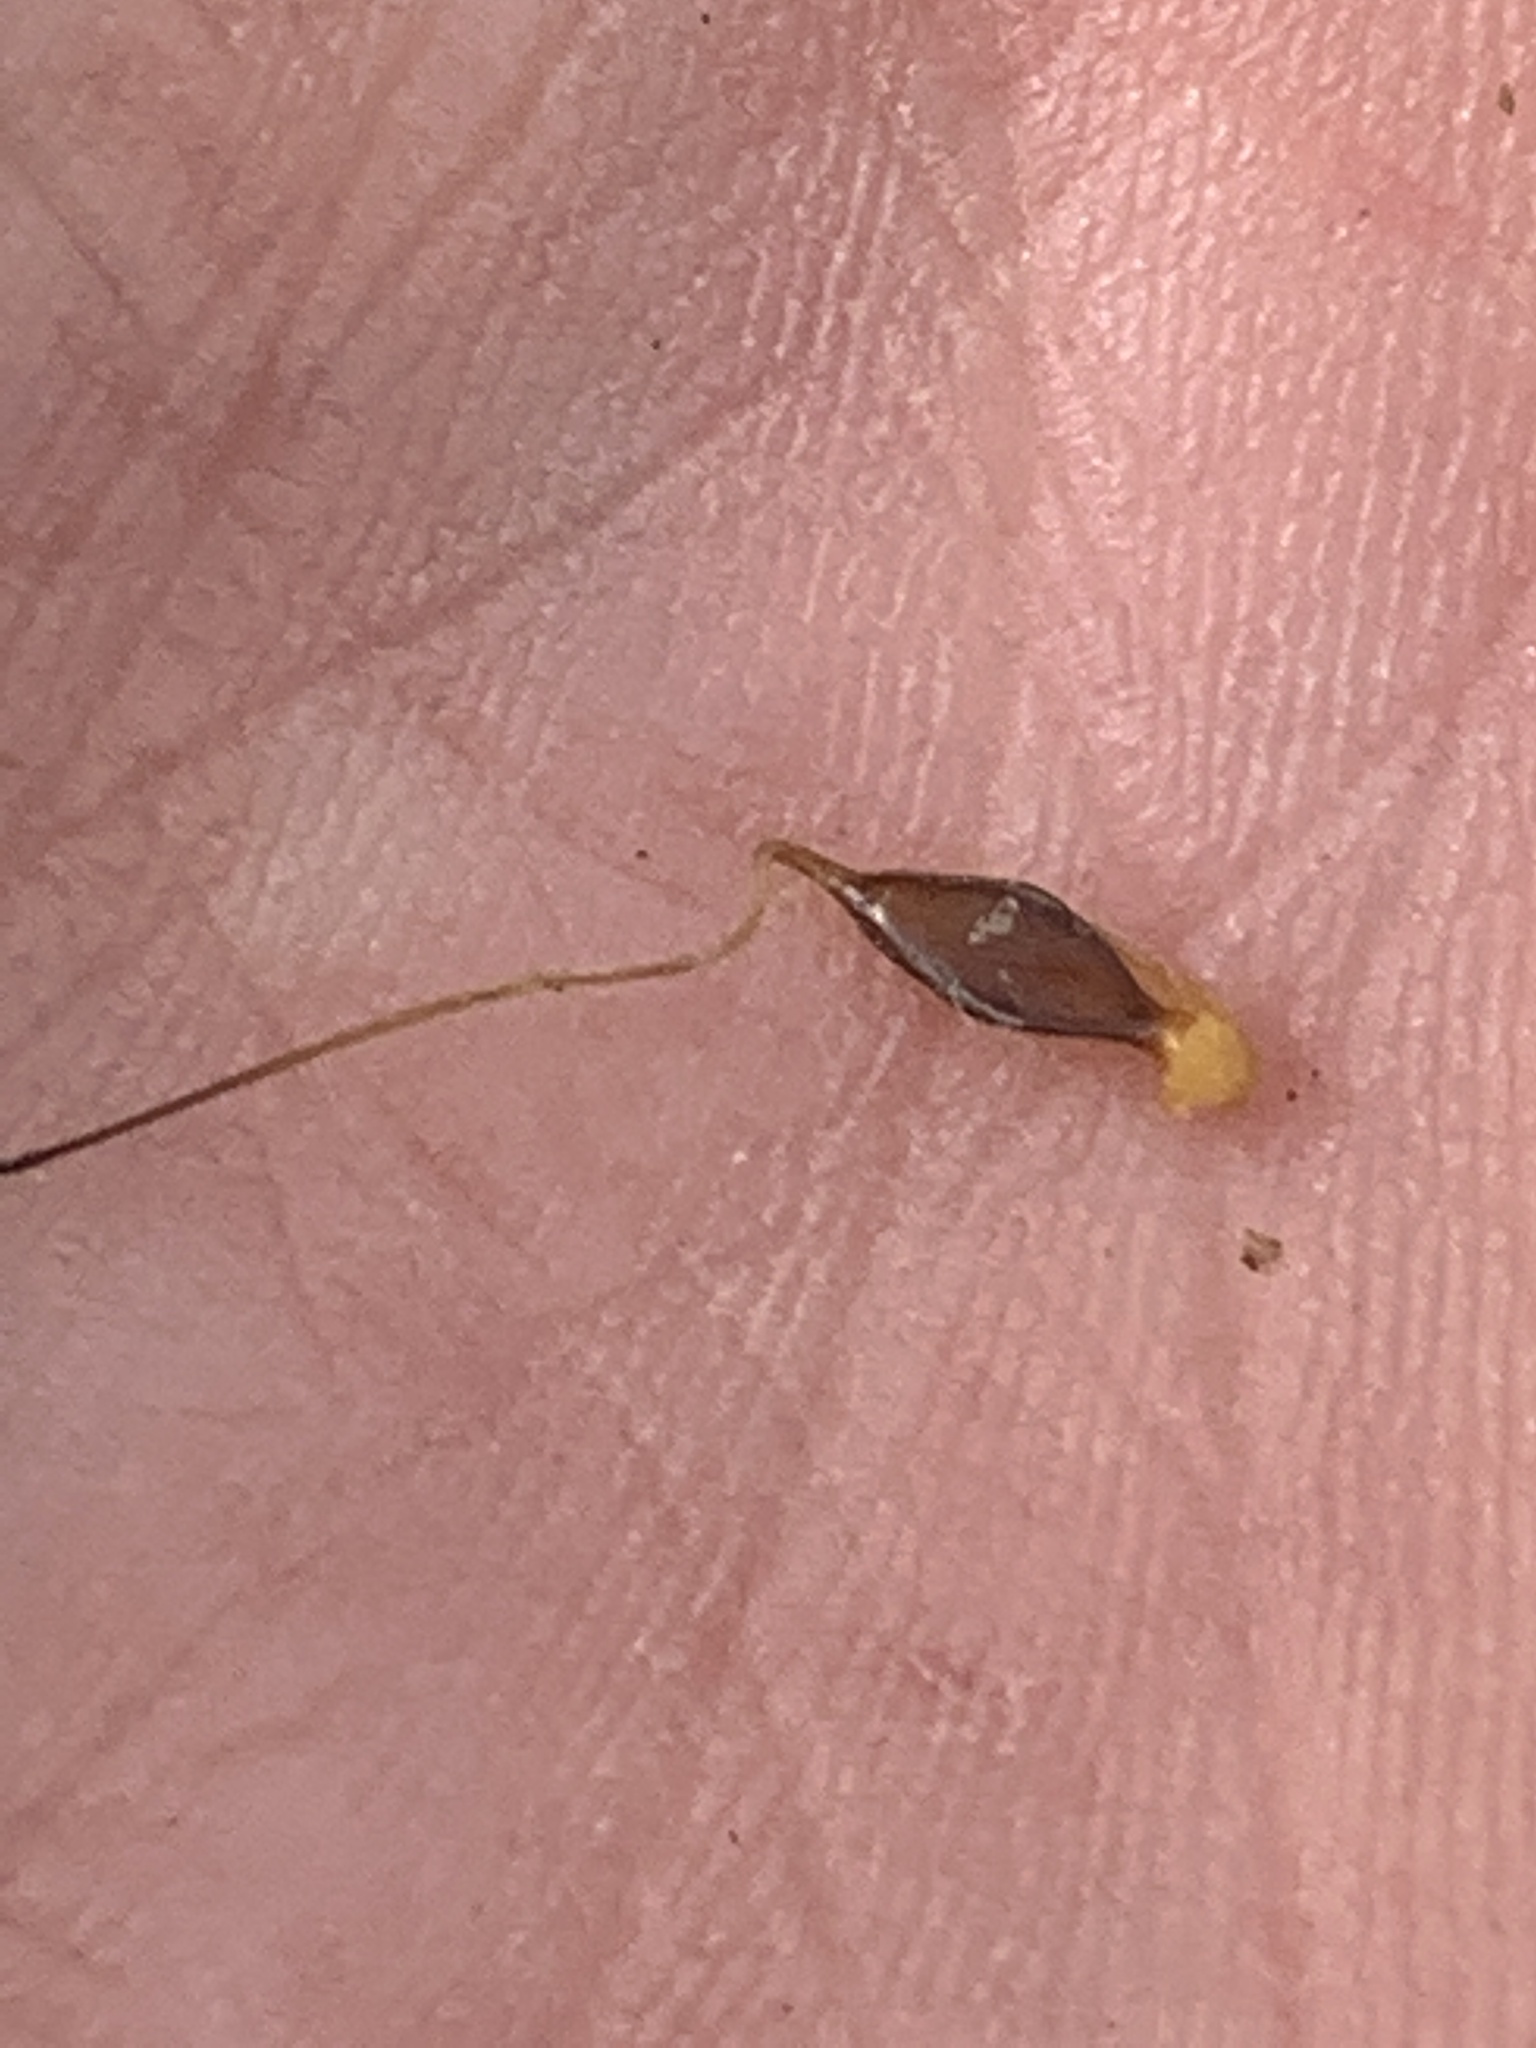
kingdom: Plantae
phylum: Tracheophyta
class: Liliopsida
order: Poales
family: Cyperaceae
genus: Carex
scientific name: Carex lupulina
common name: Hop sedge
